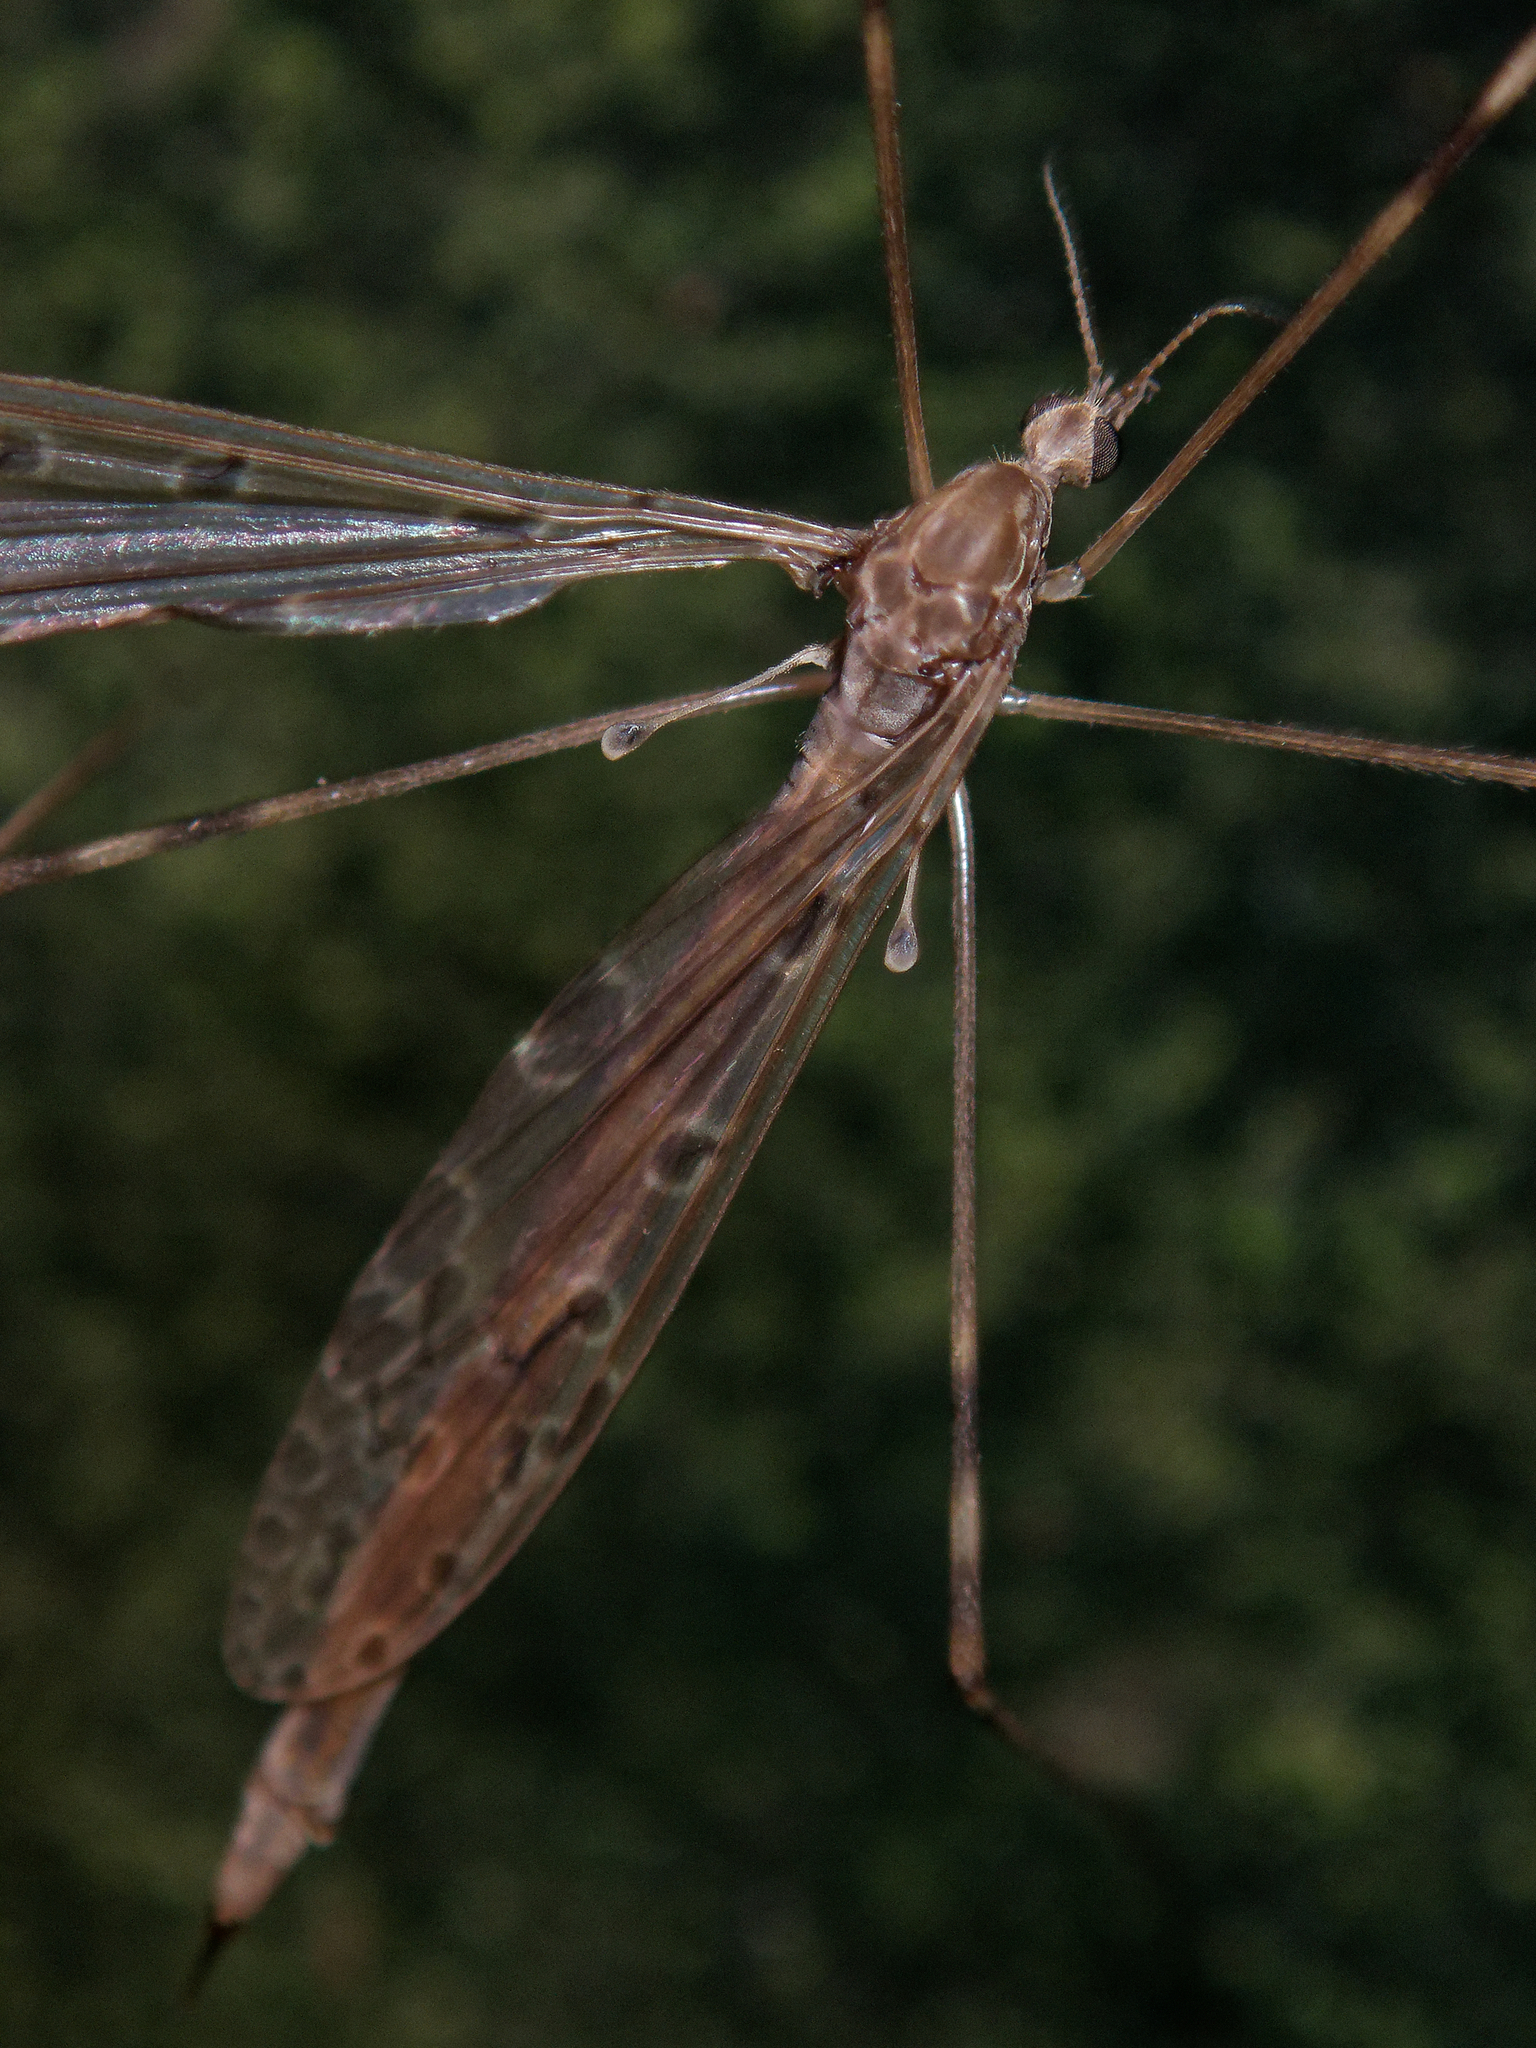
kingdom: Animalia
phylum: Arthropoda
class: Insecta
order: Diptera
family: Limoniidae
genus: Austrolimnophila
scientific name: Austrolimnophila crassipes
